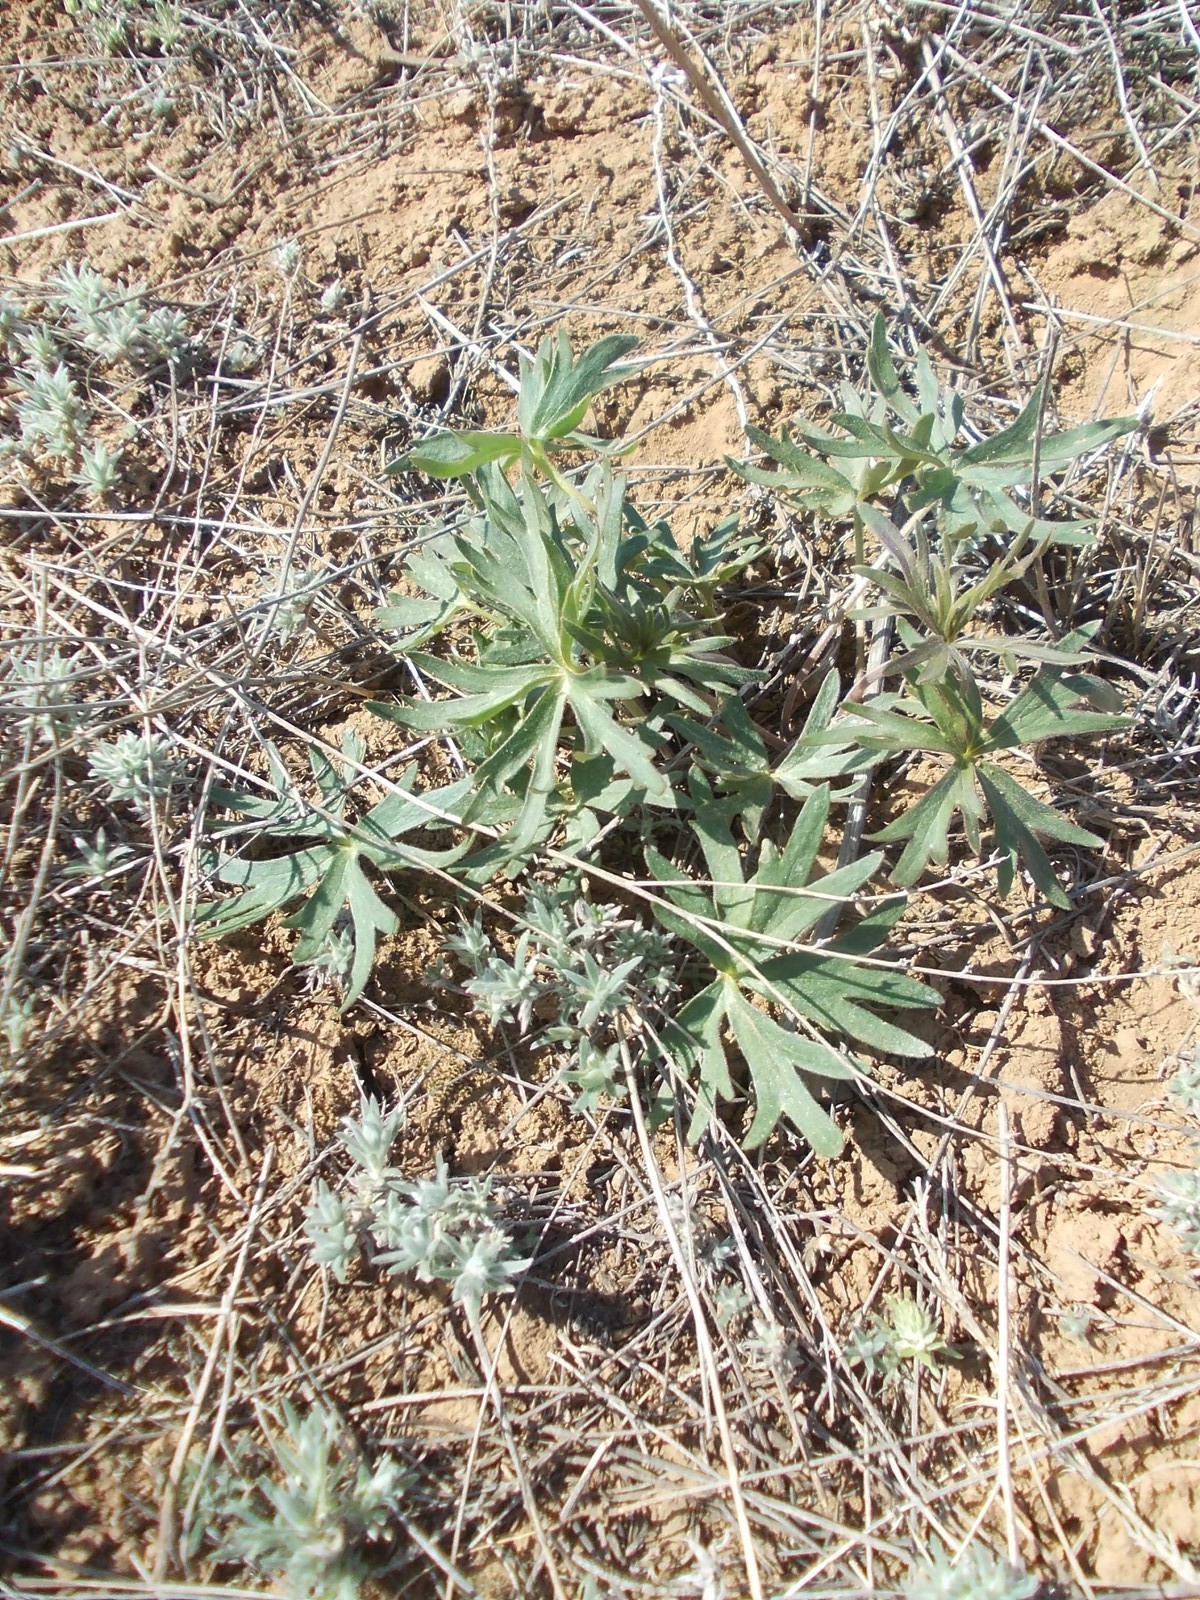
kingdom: Plantae
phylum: Tracheophyta
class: Magnoliopsida
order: Ranunculales
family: Ranunculaceae
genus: Delphinium
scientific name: Delphinium puniceum
